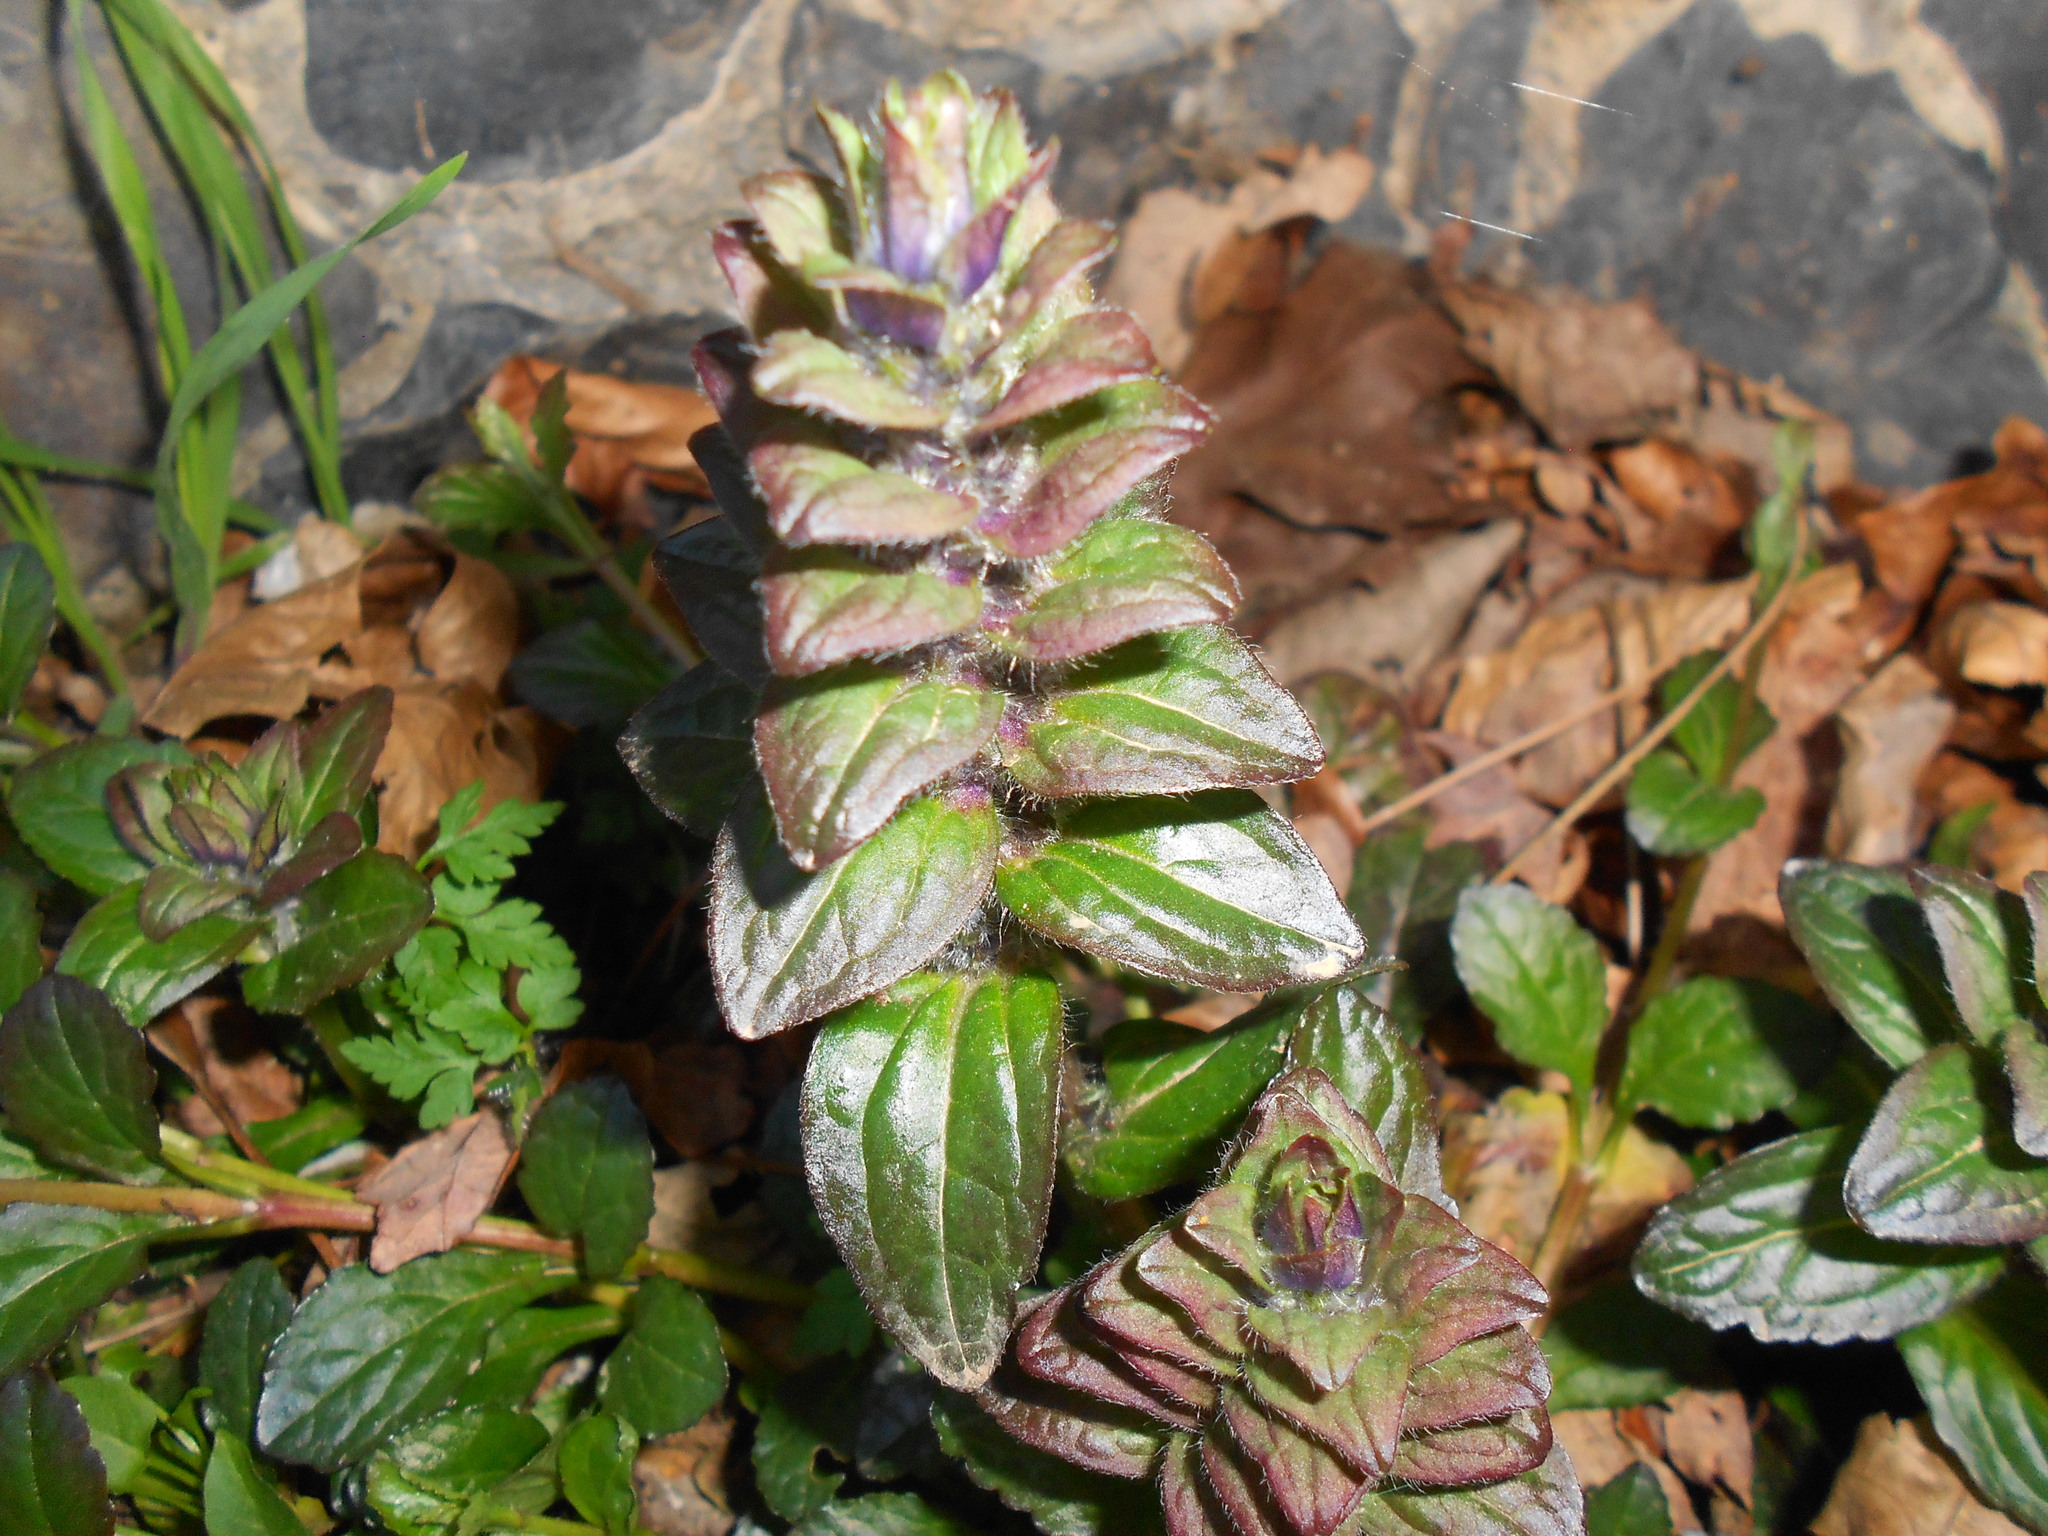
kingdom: Plantae
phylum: Tracheophyta
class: Magnoliopsida
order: Lamiales
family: Lamiaceae
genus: Ajuga
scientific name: Ajuga reptans
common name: Bugle
